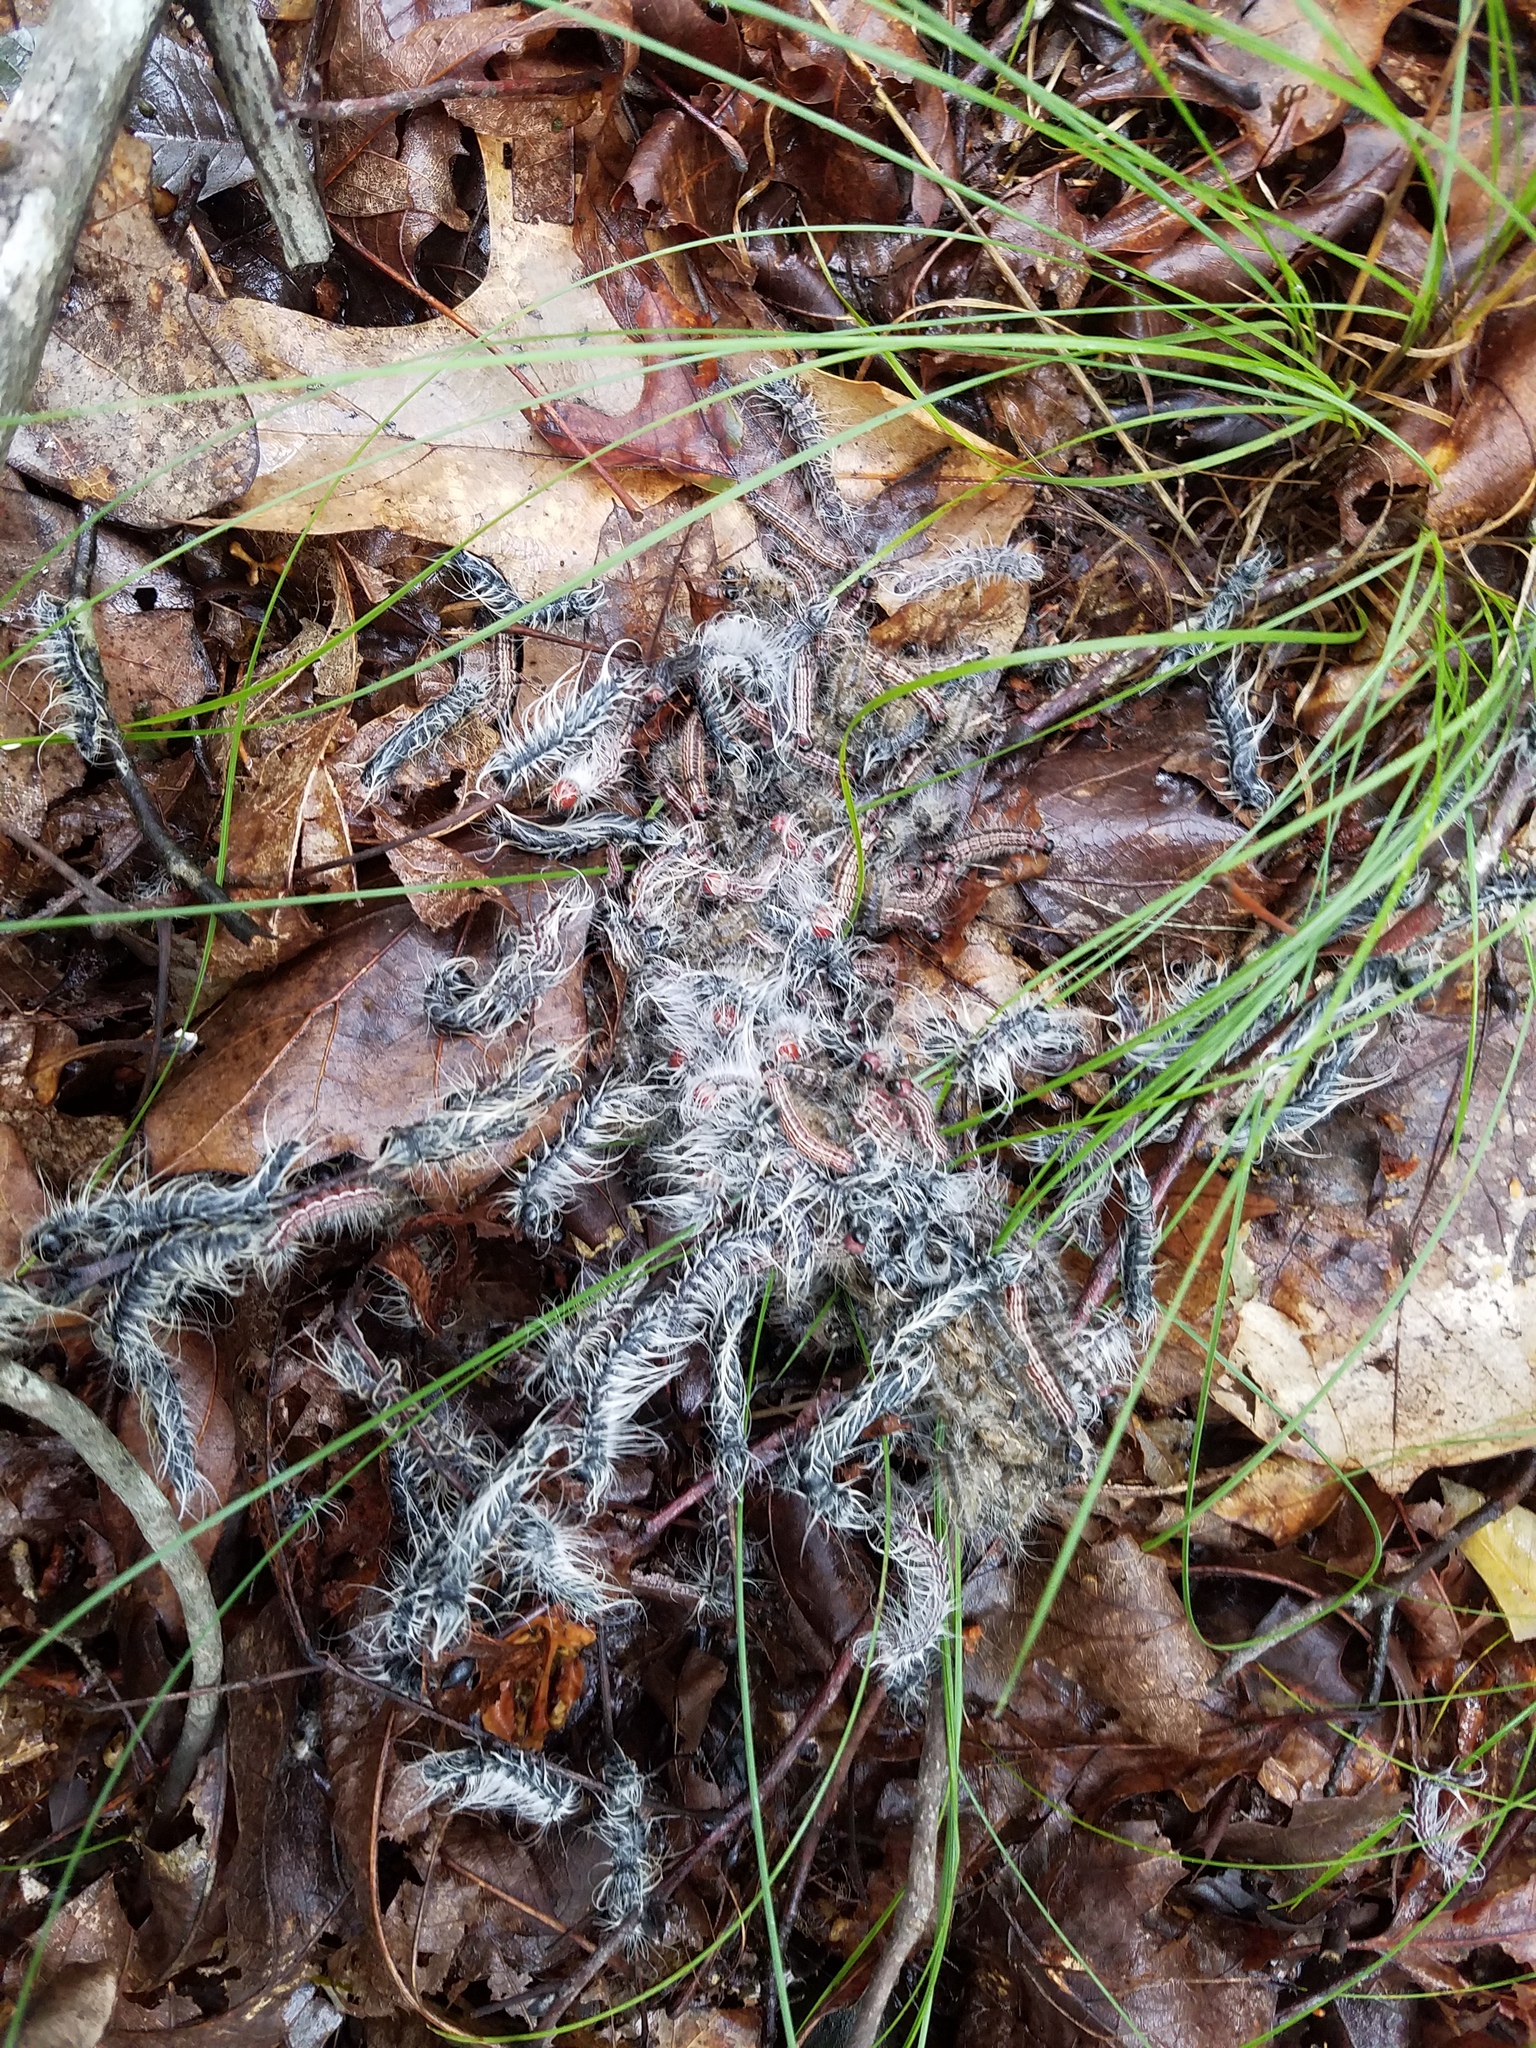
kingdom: Animalia
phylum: Arthropoda
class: Insecta
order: Lepidoptera
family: Notodontidae
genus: Datana
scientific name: Datana integerrima
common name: Walnut caterpillar
